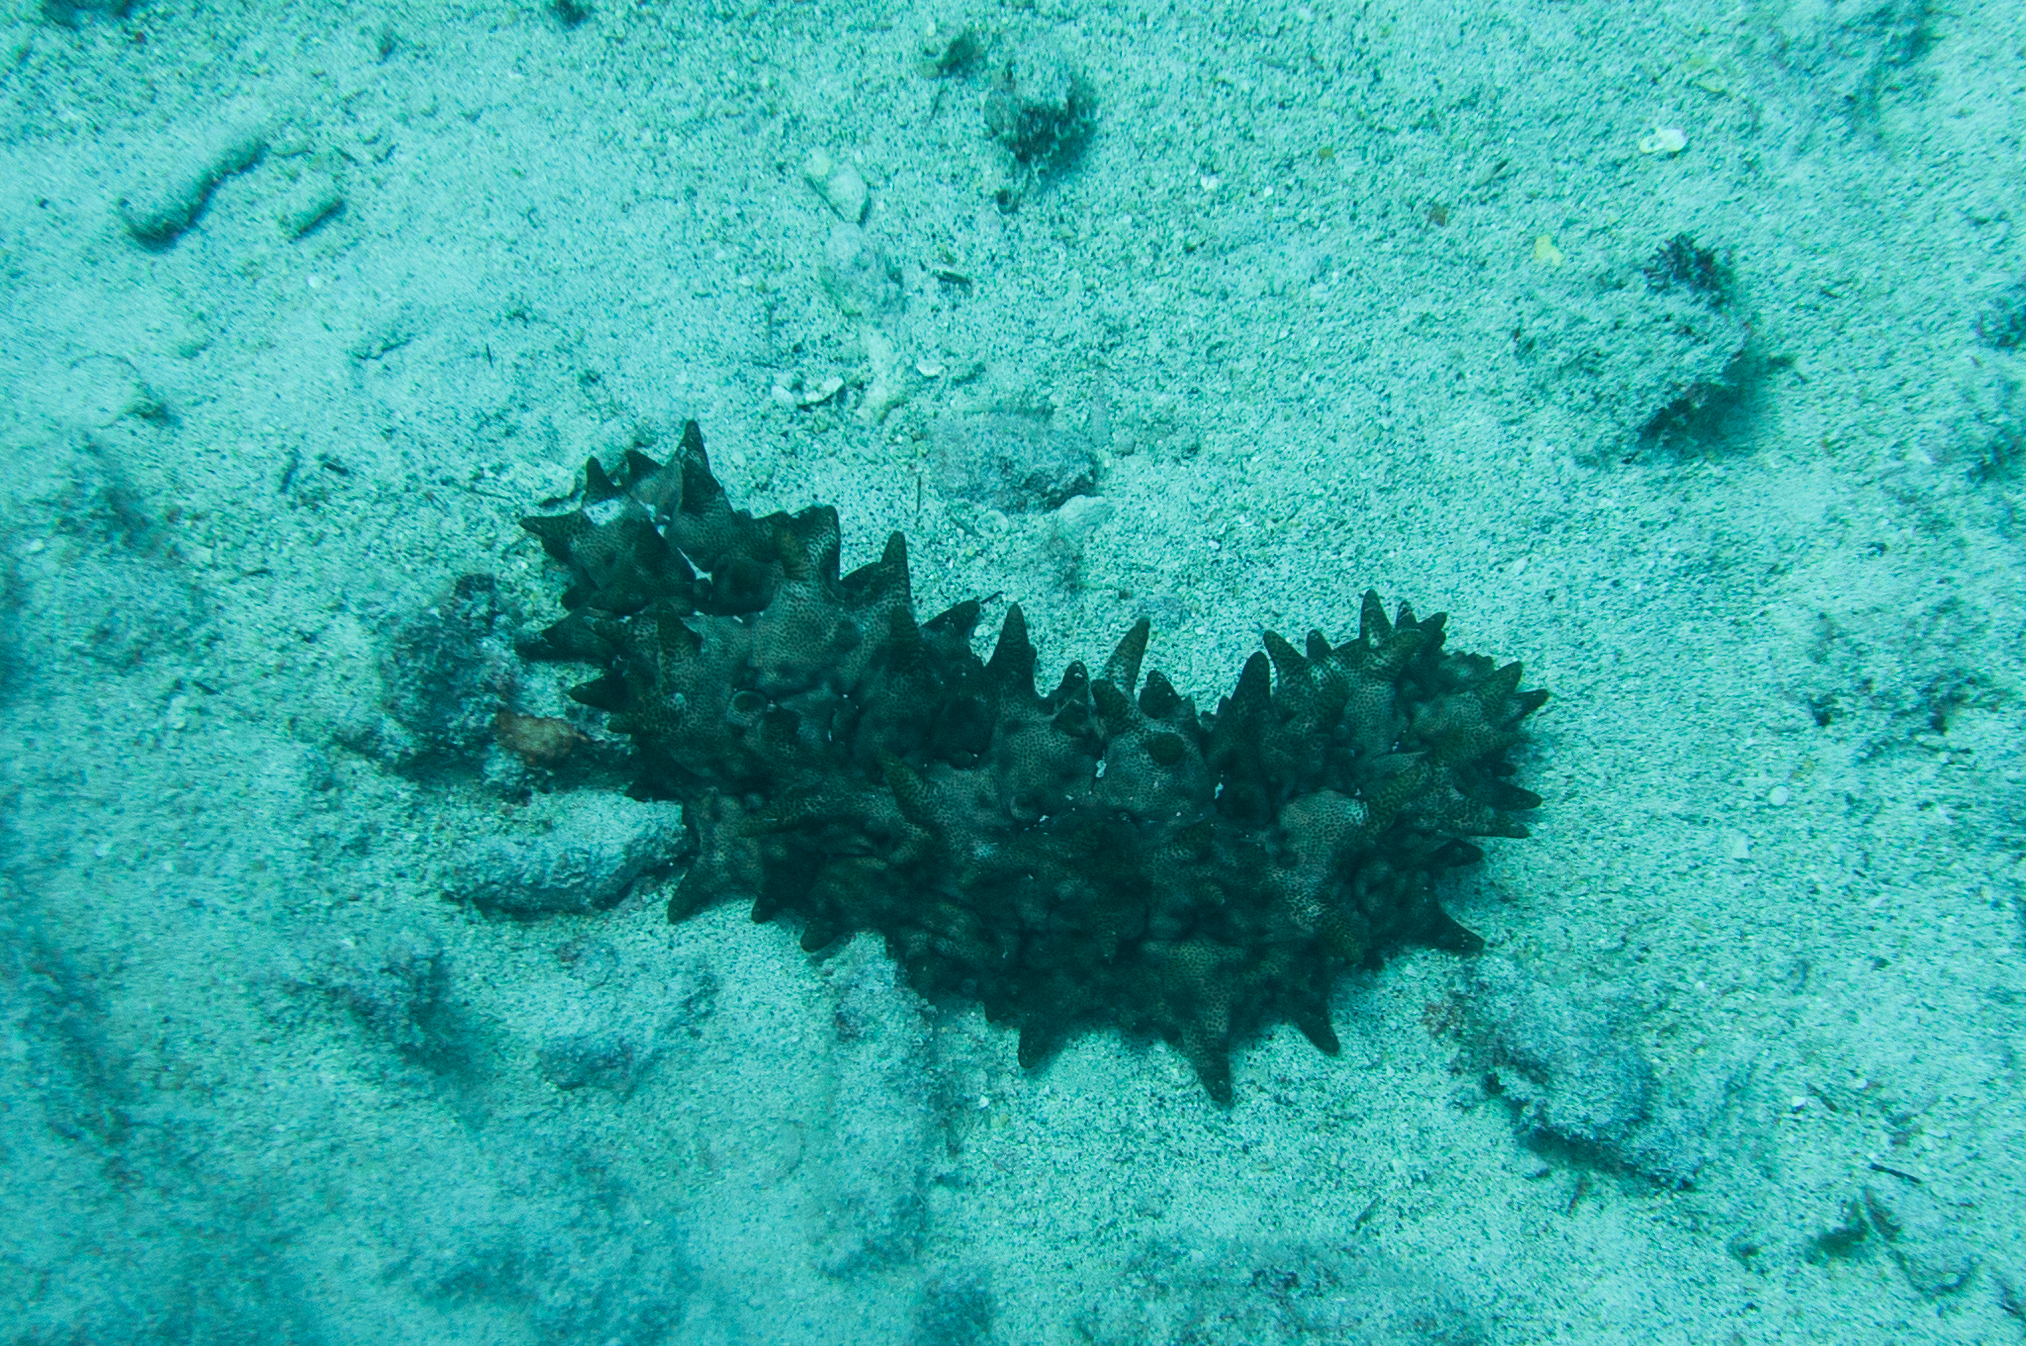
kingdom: Animalia
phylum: Echinodermata
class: Holothuroidea
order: Synallactida
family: Stichopodidae
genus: Stichopus
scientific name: Stichopus pseudohorrens
